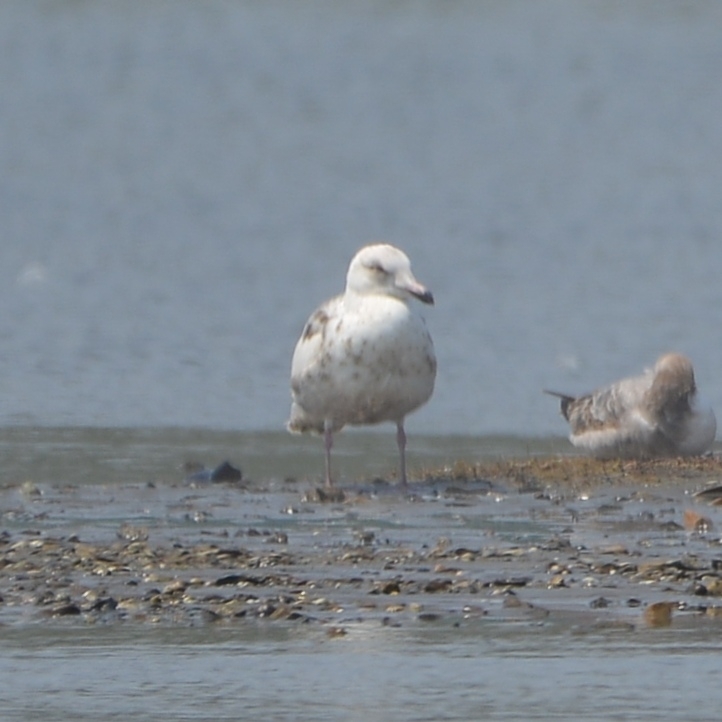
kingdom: Animalia
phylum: Chordata
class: Aves
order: Charadriiformes
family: Laridae
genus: Larus
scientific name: Larus hyperboreus
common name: Glaucous gull
